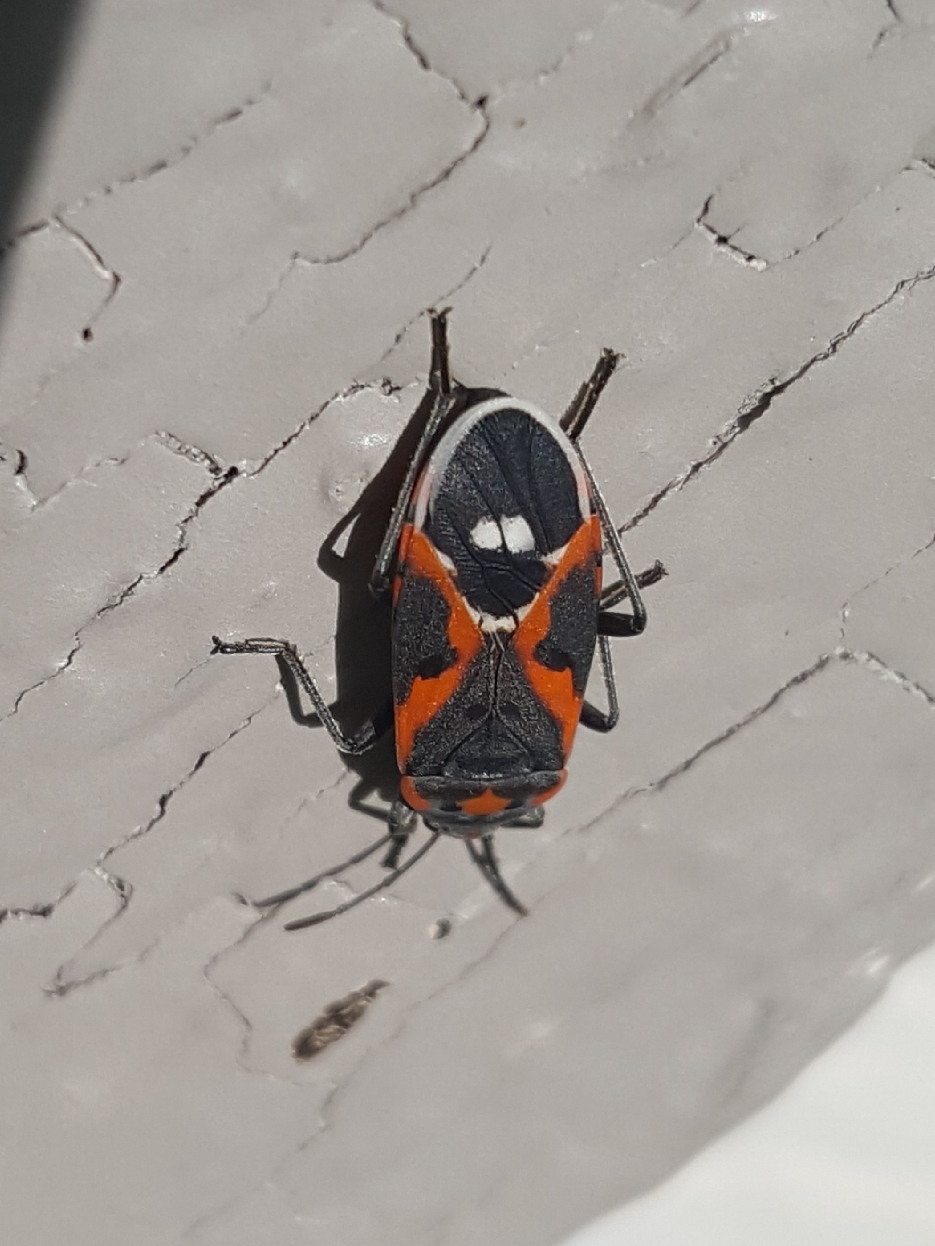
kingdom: Animalia
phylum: Arthropoda
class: Insecta
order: Hemiptera
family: Lygaeidae
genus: Lygaeus
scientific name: Lygaeus kalmii
